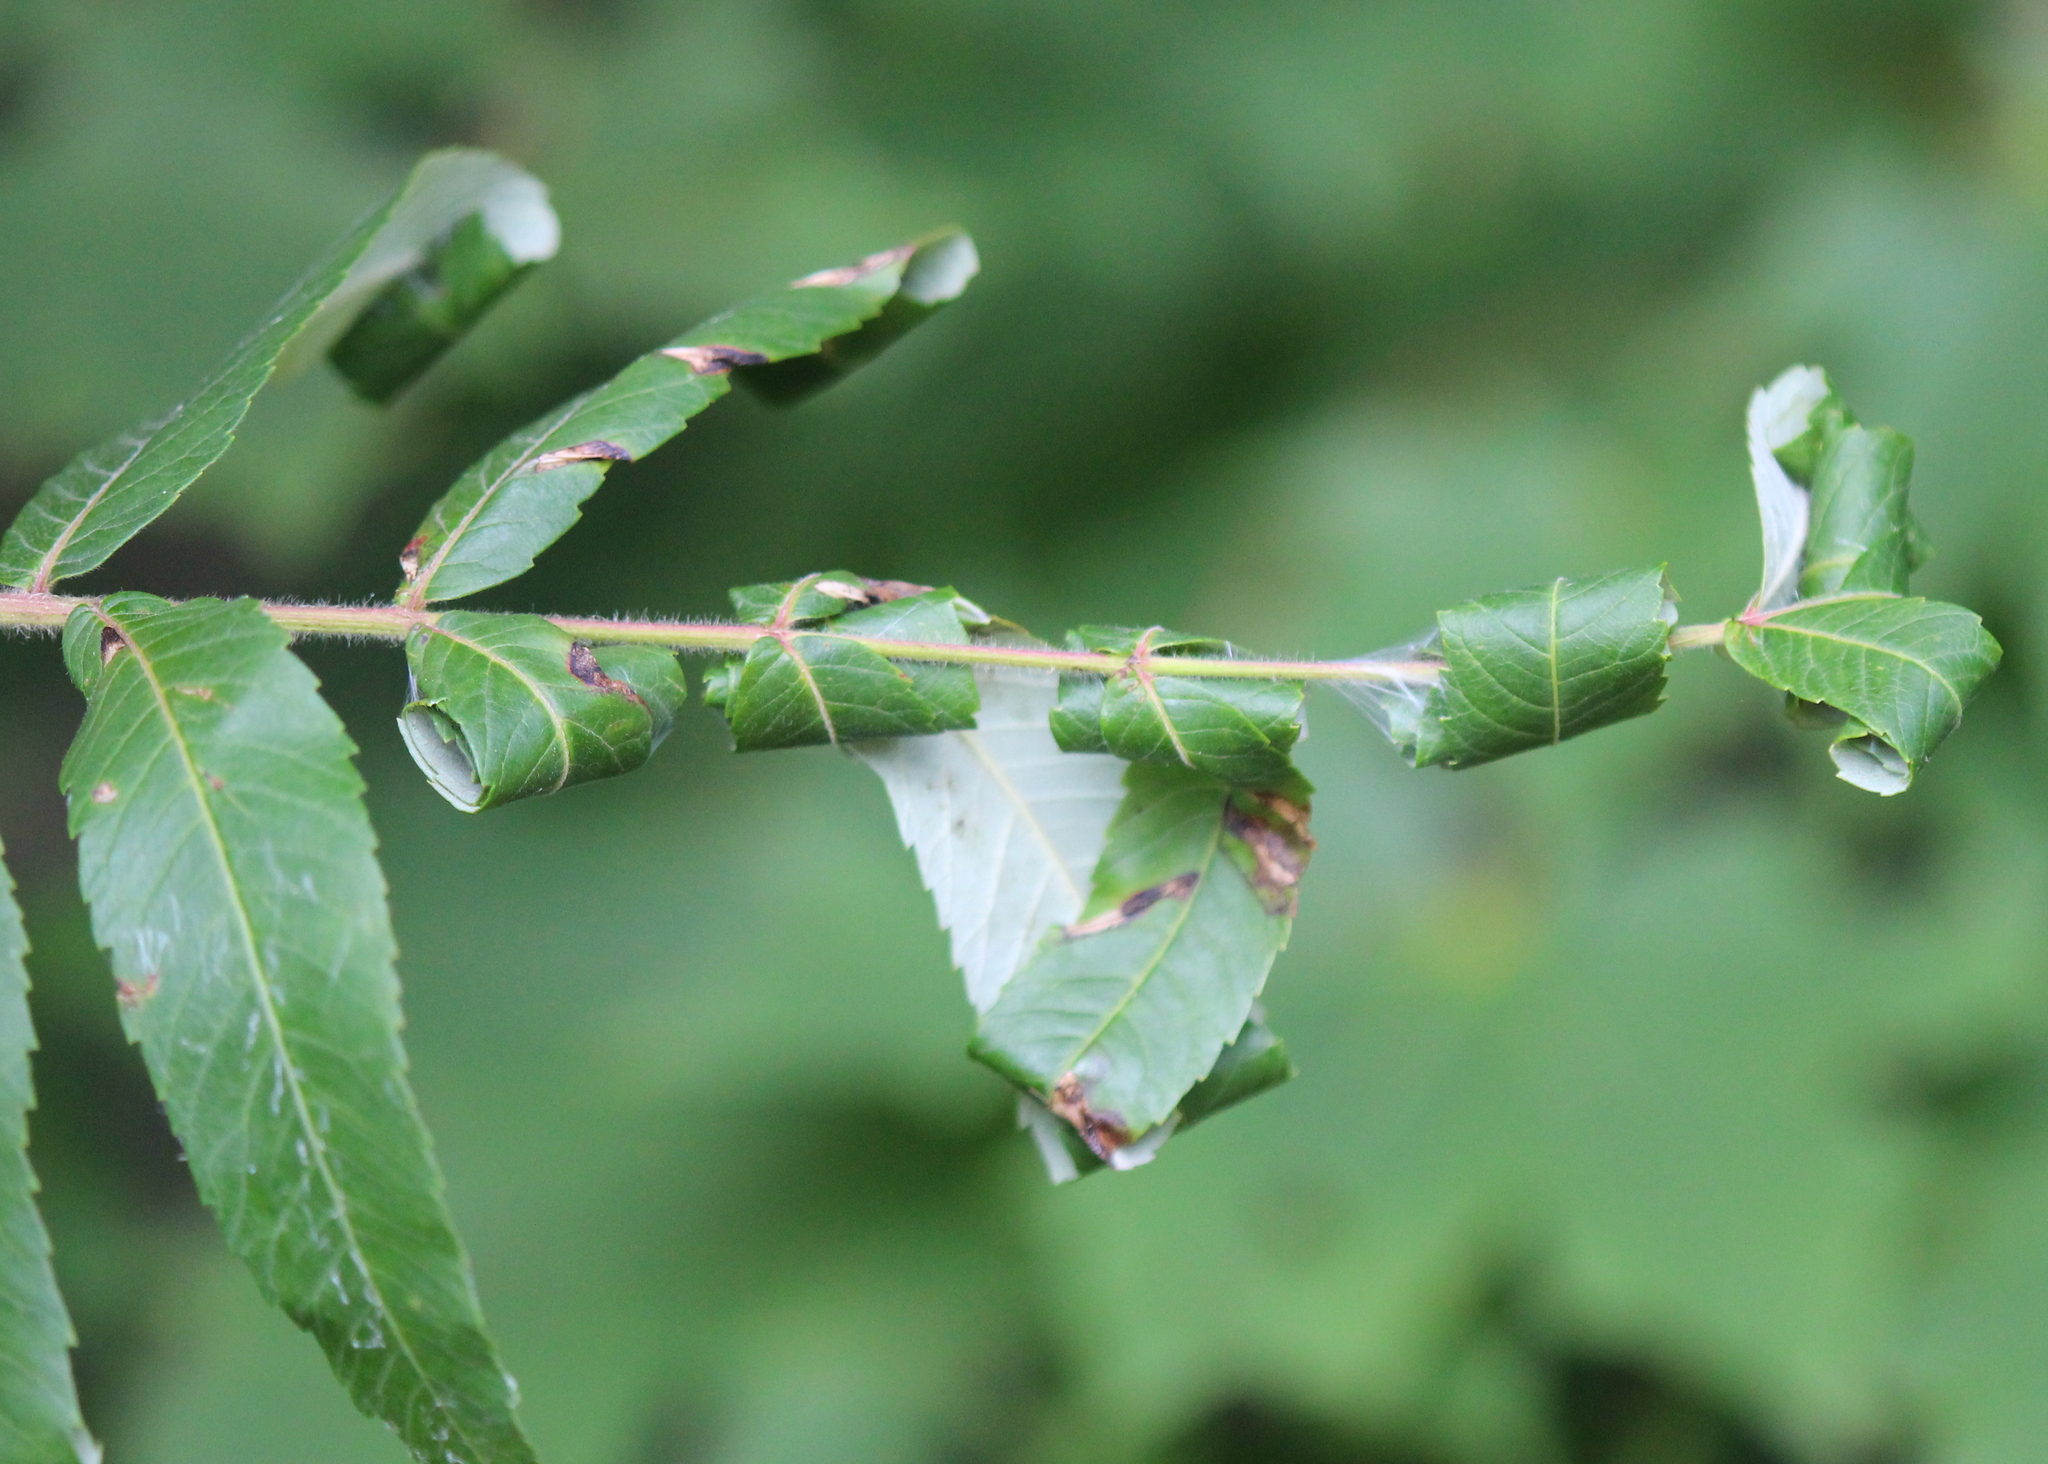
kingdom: Animalia
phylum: Arthropoda
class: Insecta
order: Lepidoptera
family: Gracillariidae
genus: Caloptilia
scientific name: Caloptilia rhoifoliella
